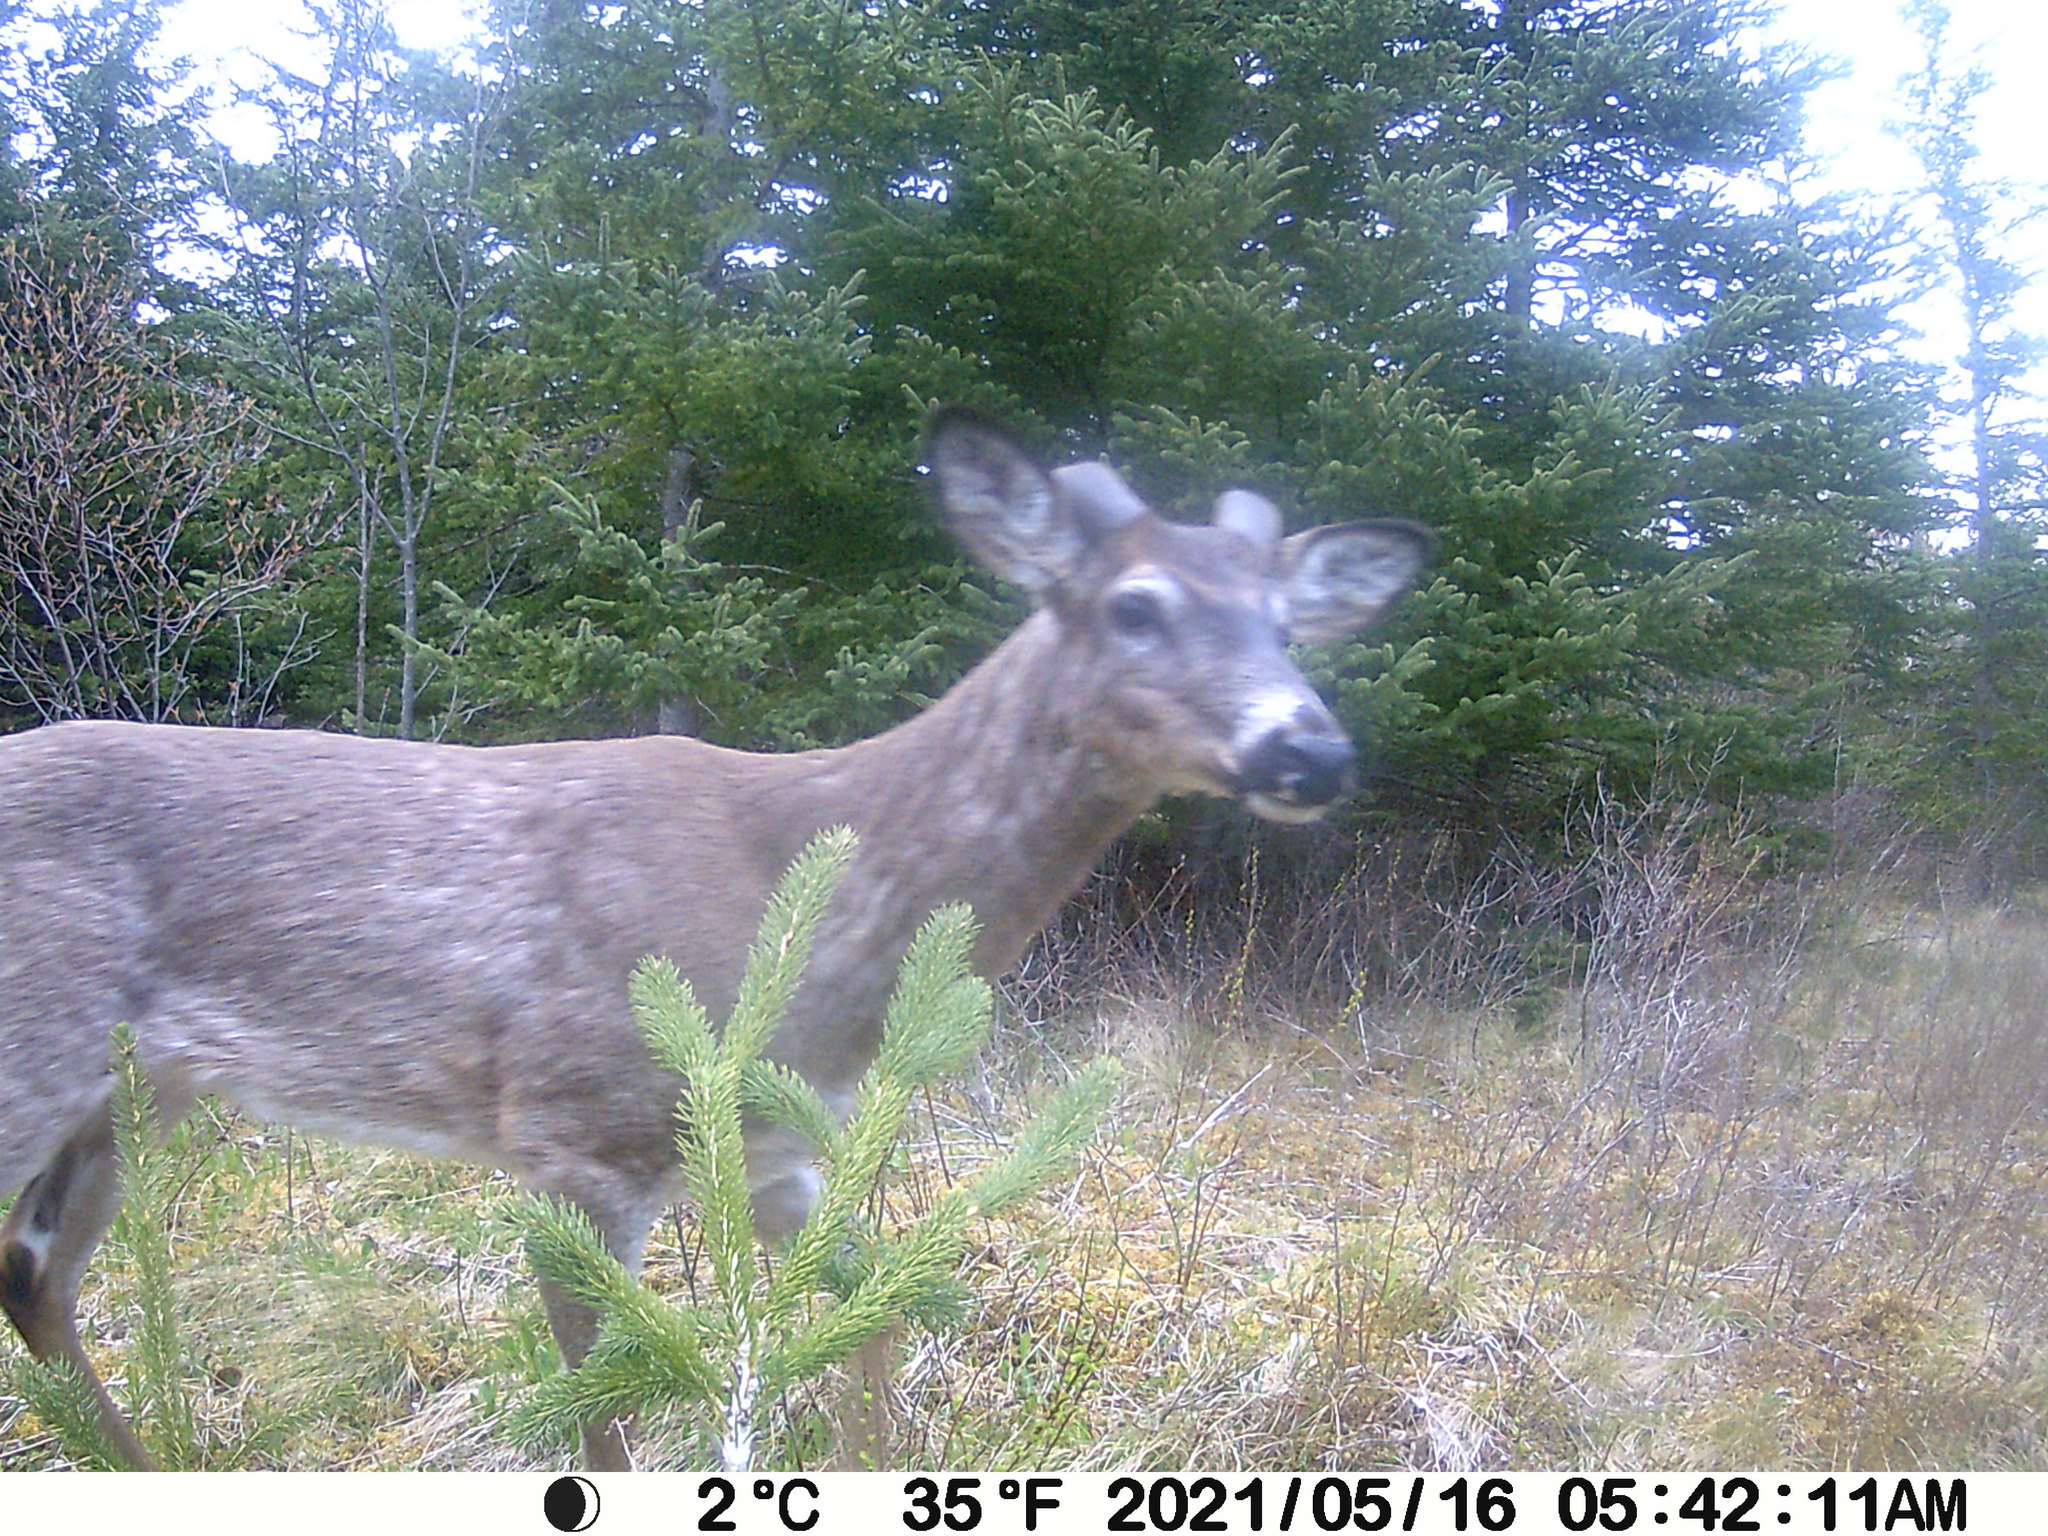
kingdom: Animalia
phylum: Chordata
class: Mammalia
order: Artiodactyla
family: Cervidae
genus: Odocoileus
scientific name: Odocoileus virginianus
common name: White-tailed deer
